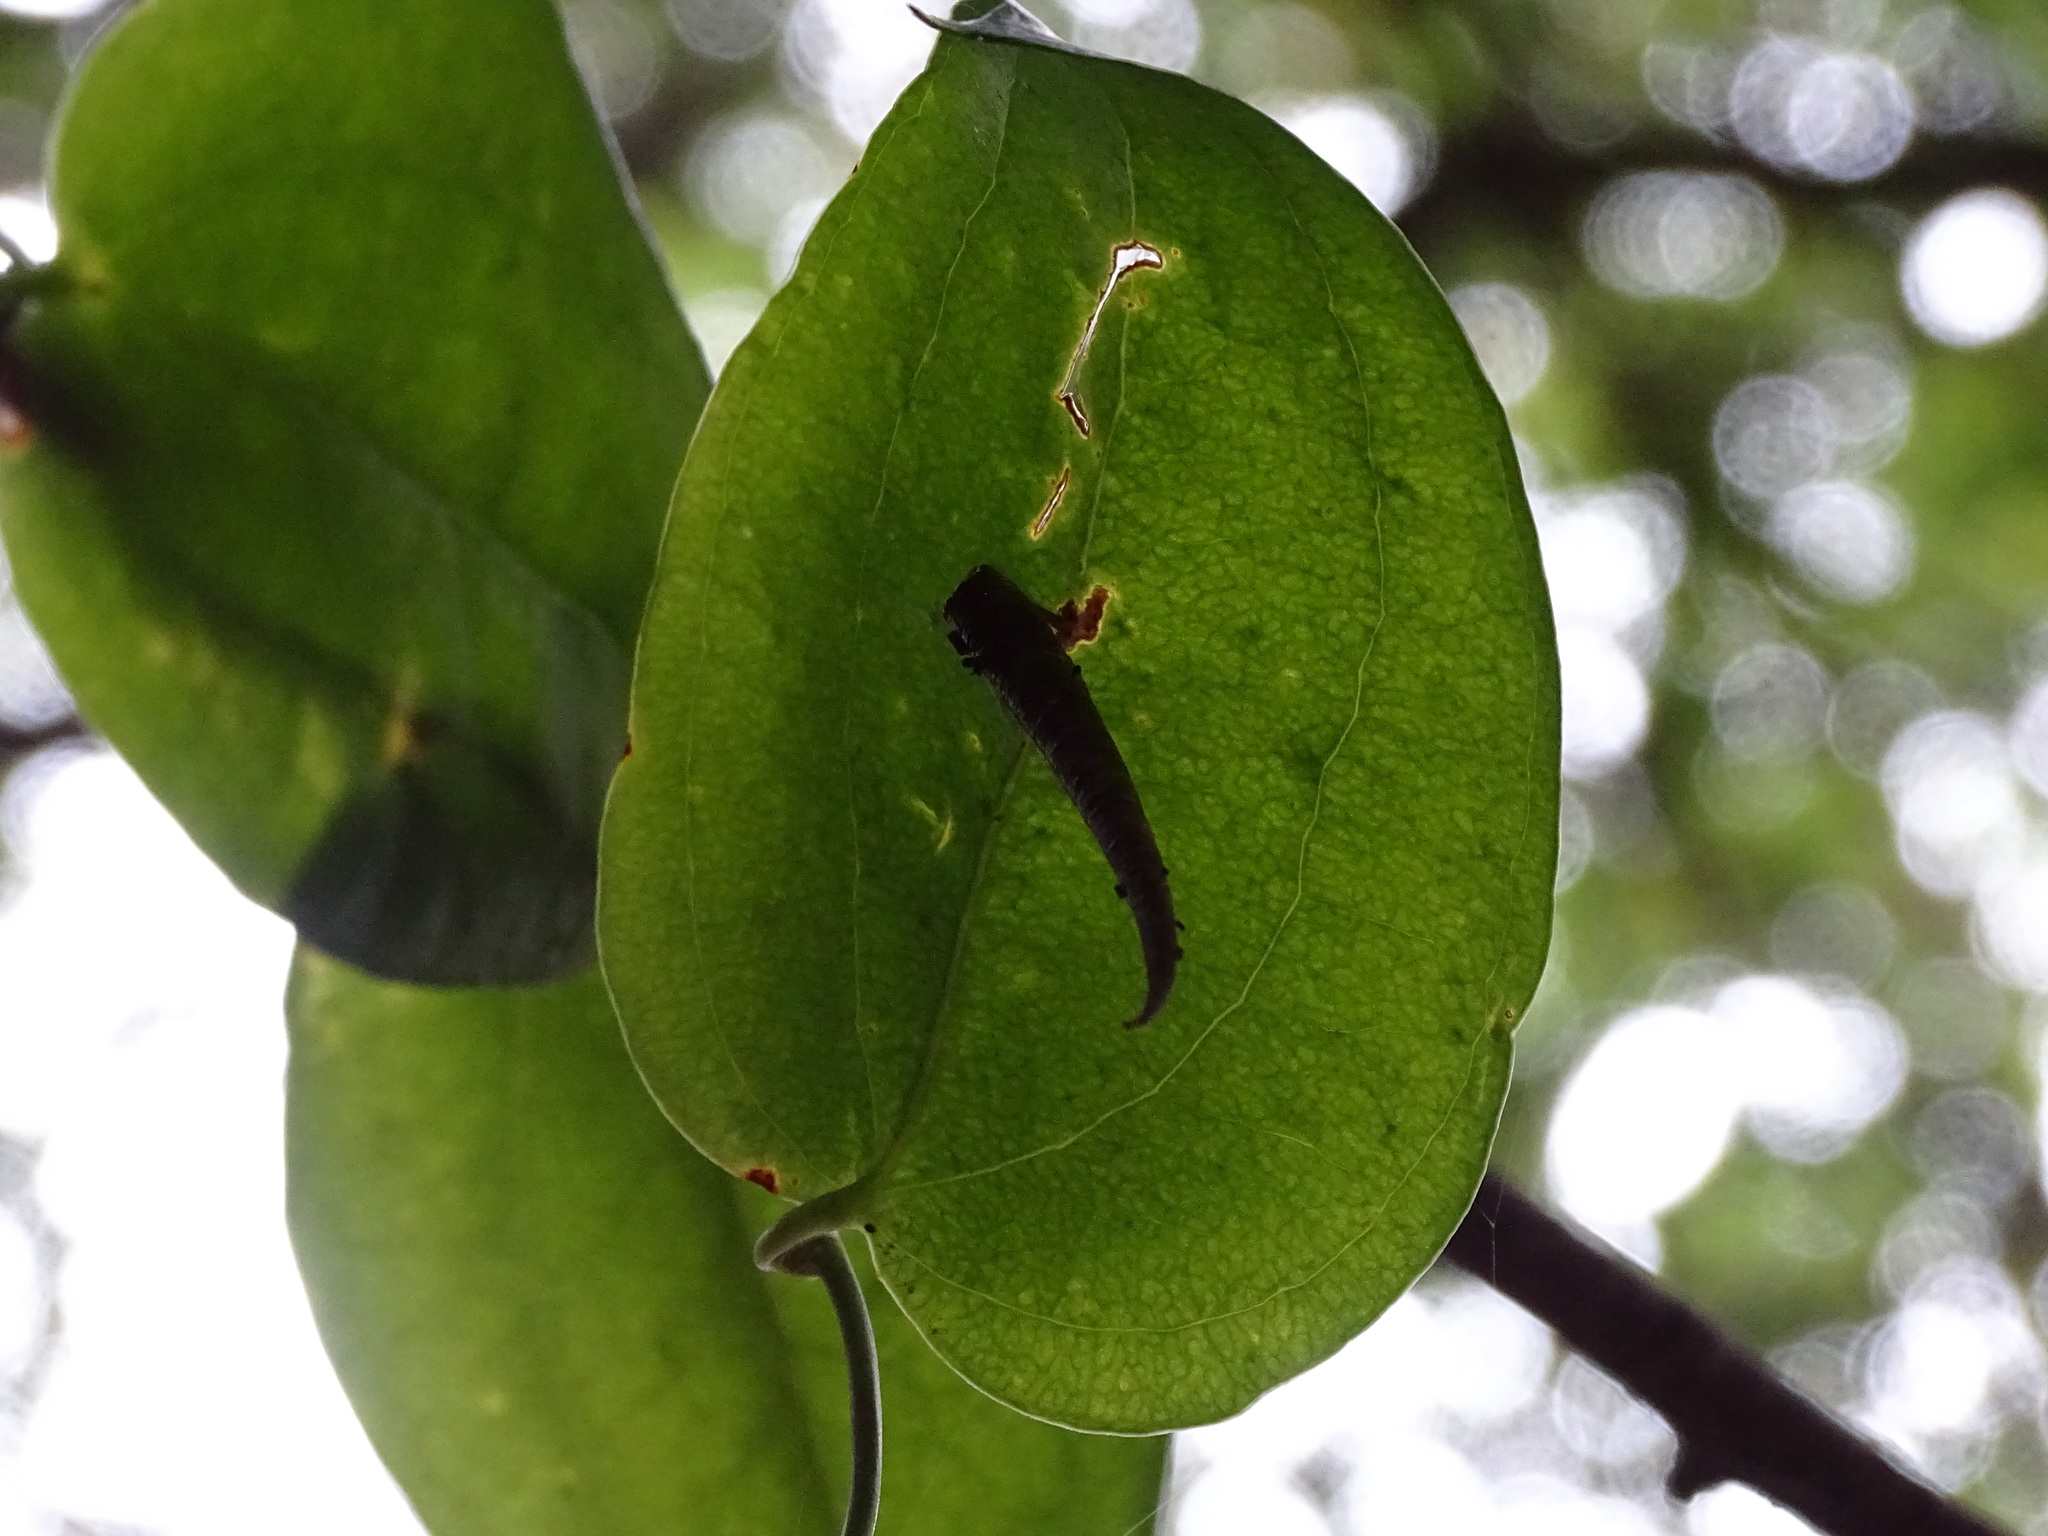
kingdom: Animalia
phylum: Arthropoda
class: Insecta
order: Lepidoptera
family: Oecophoridae
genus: Arctopoda
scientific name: Arctopoda maculosa
